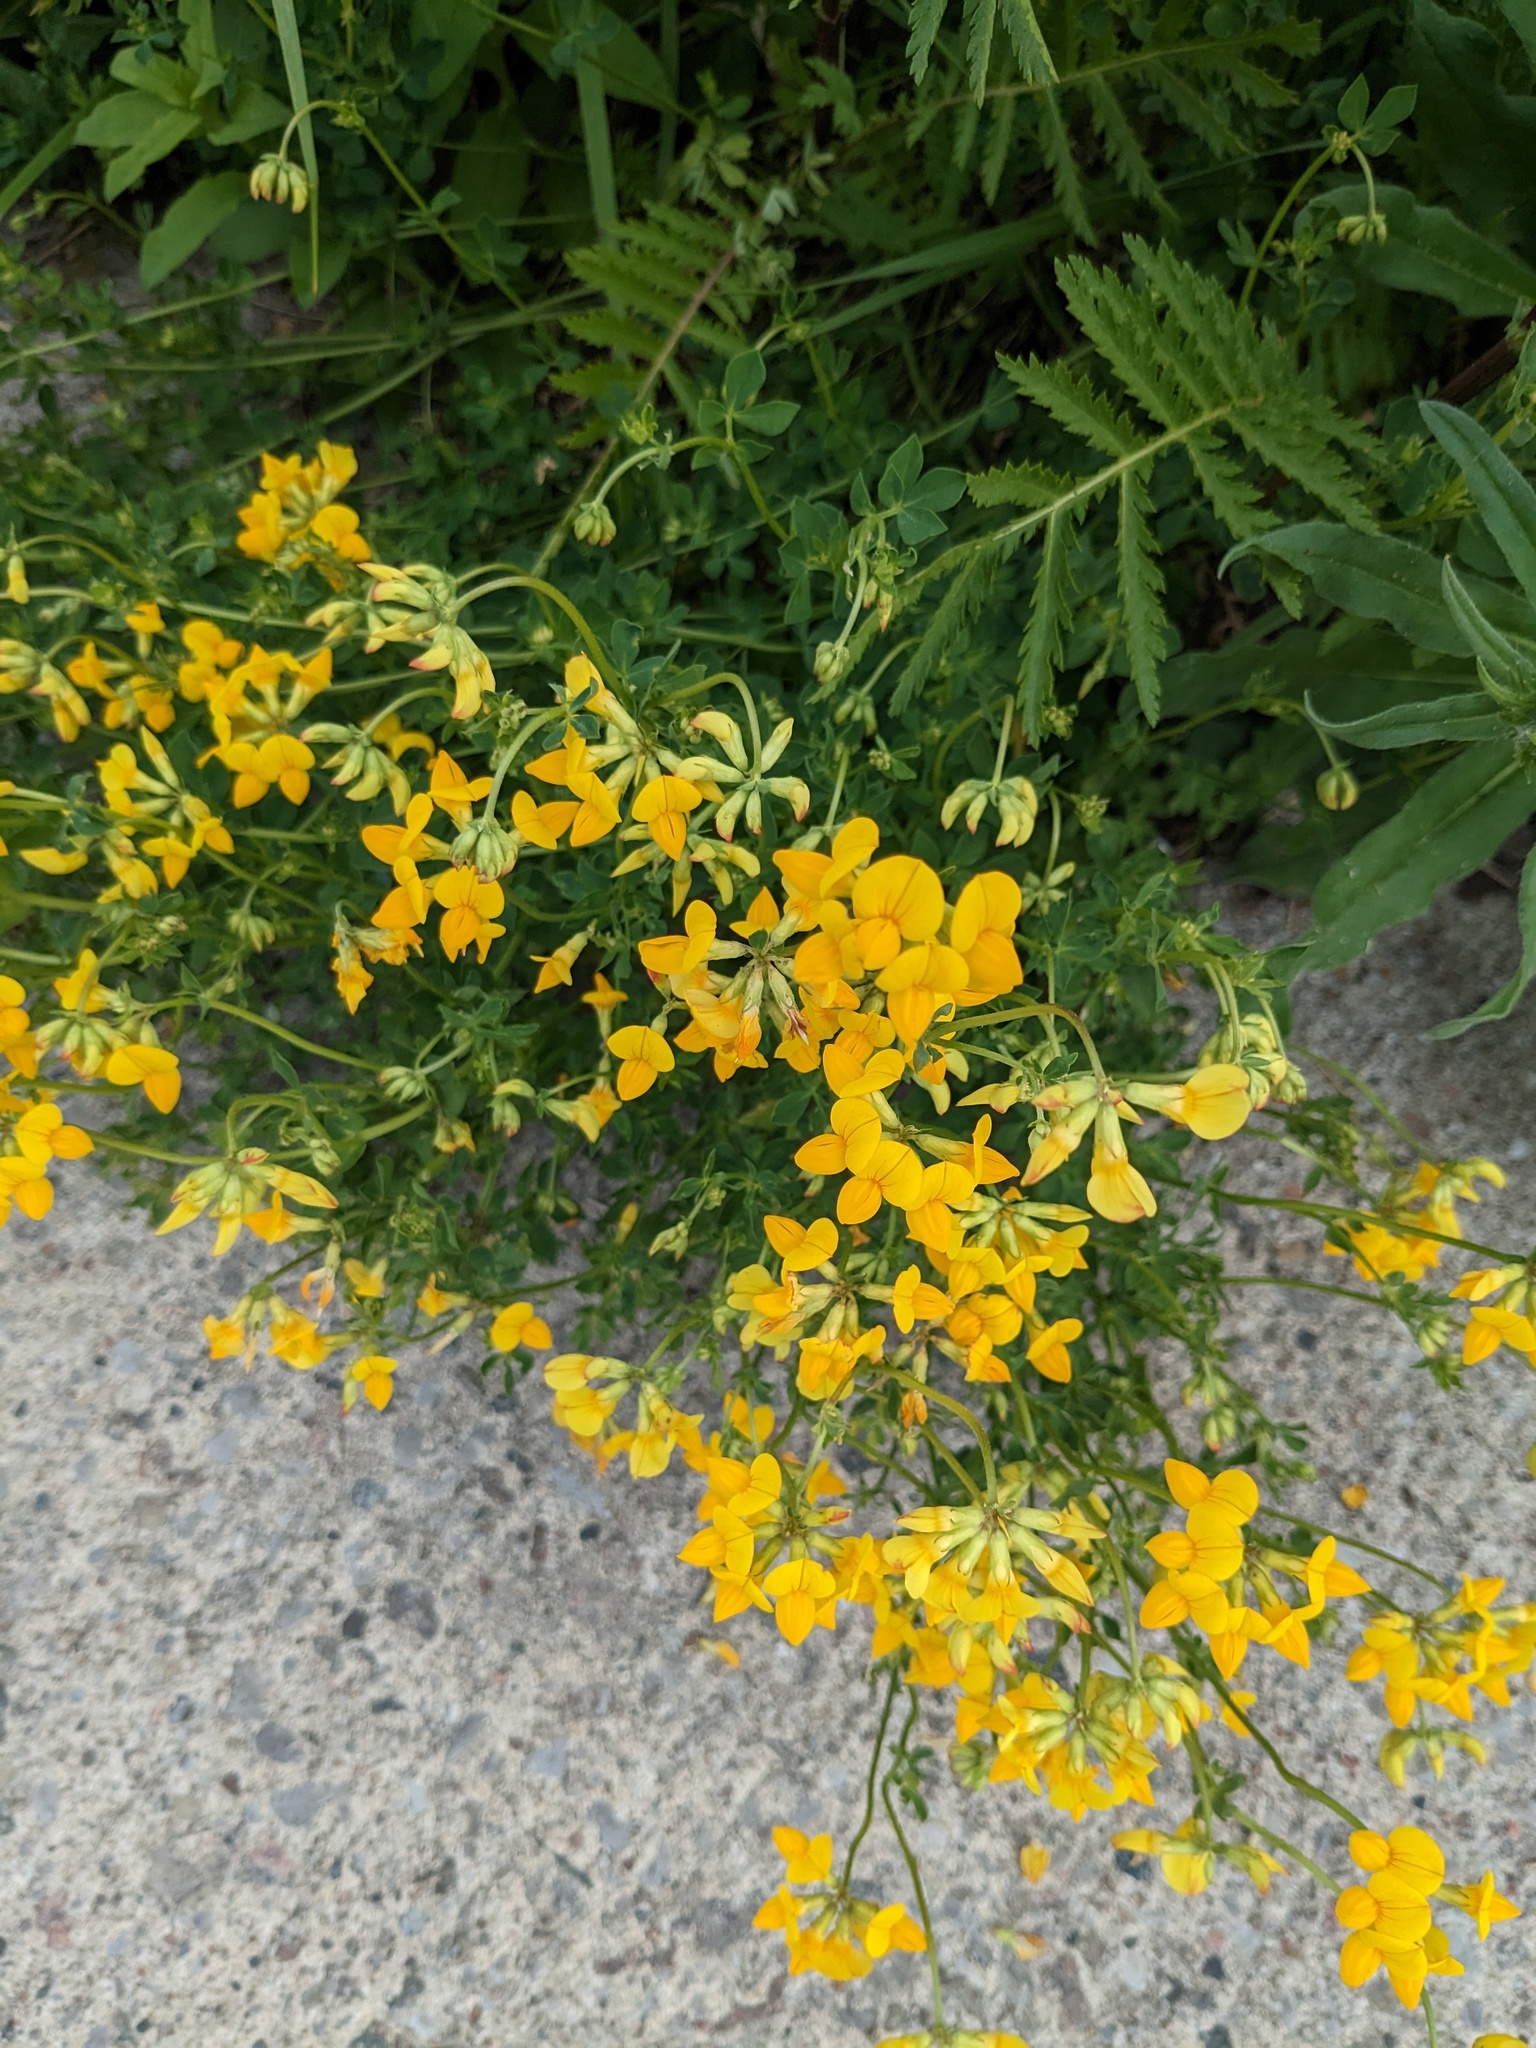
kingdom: Plantae
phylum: Tracheophyta
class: Magnoliopsida
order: Fabales
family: Fabaceae
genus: Lotus
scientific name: Lotus corniculatus
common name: Common bird's-foot-trefoil
